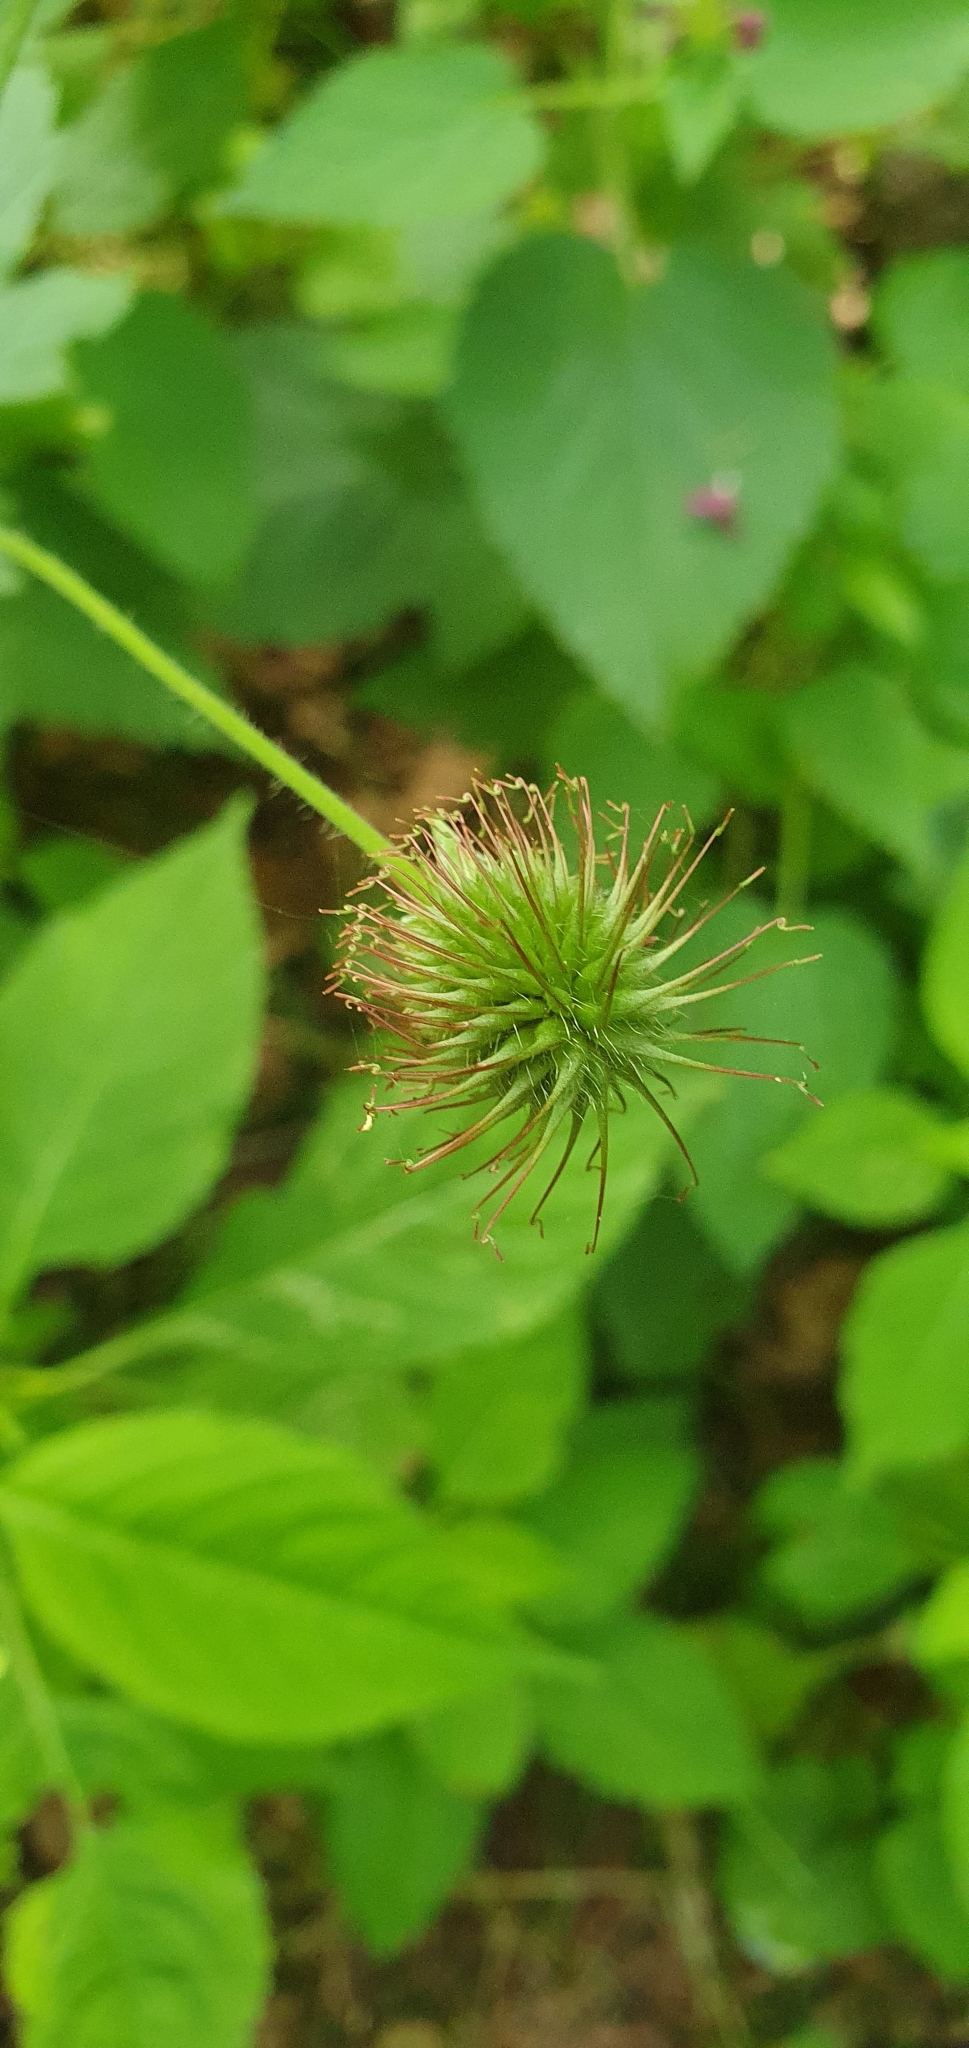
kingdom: Plantae
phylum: Tracheophyta
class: Magnoliopsida
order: Rosales
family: Rosaceae
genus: Geum
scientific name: Geum urbanum
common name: Wood avens
